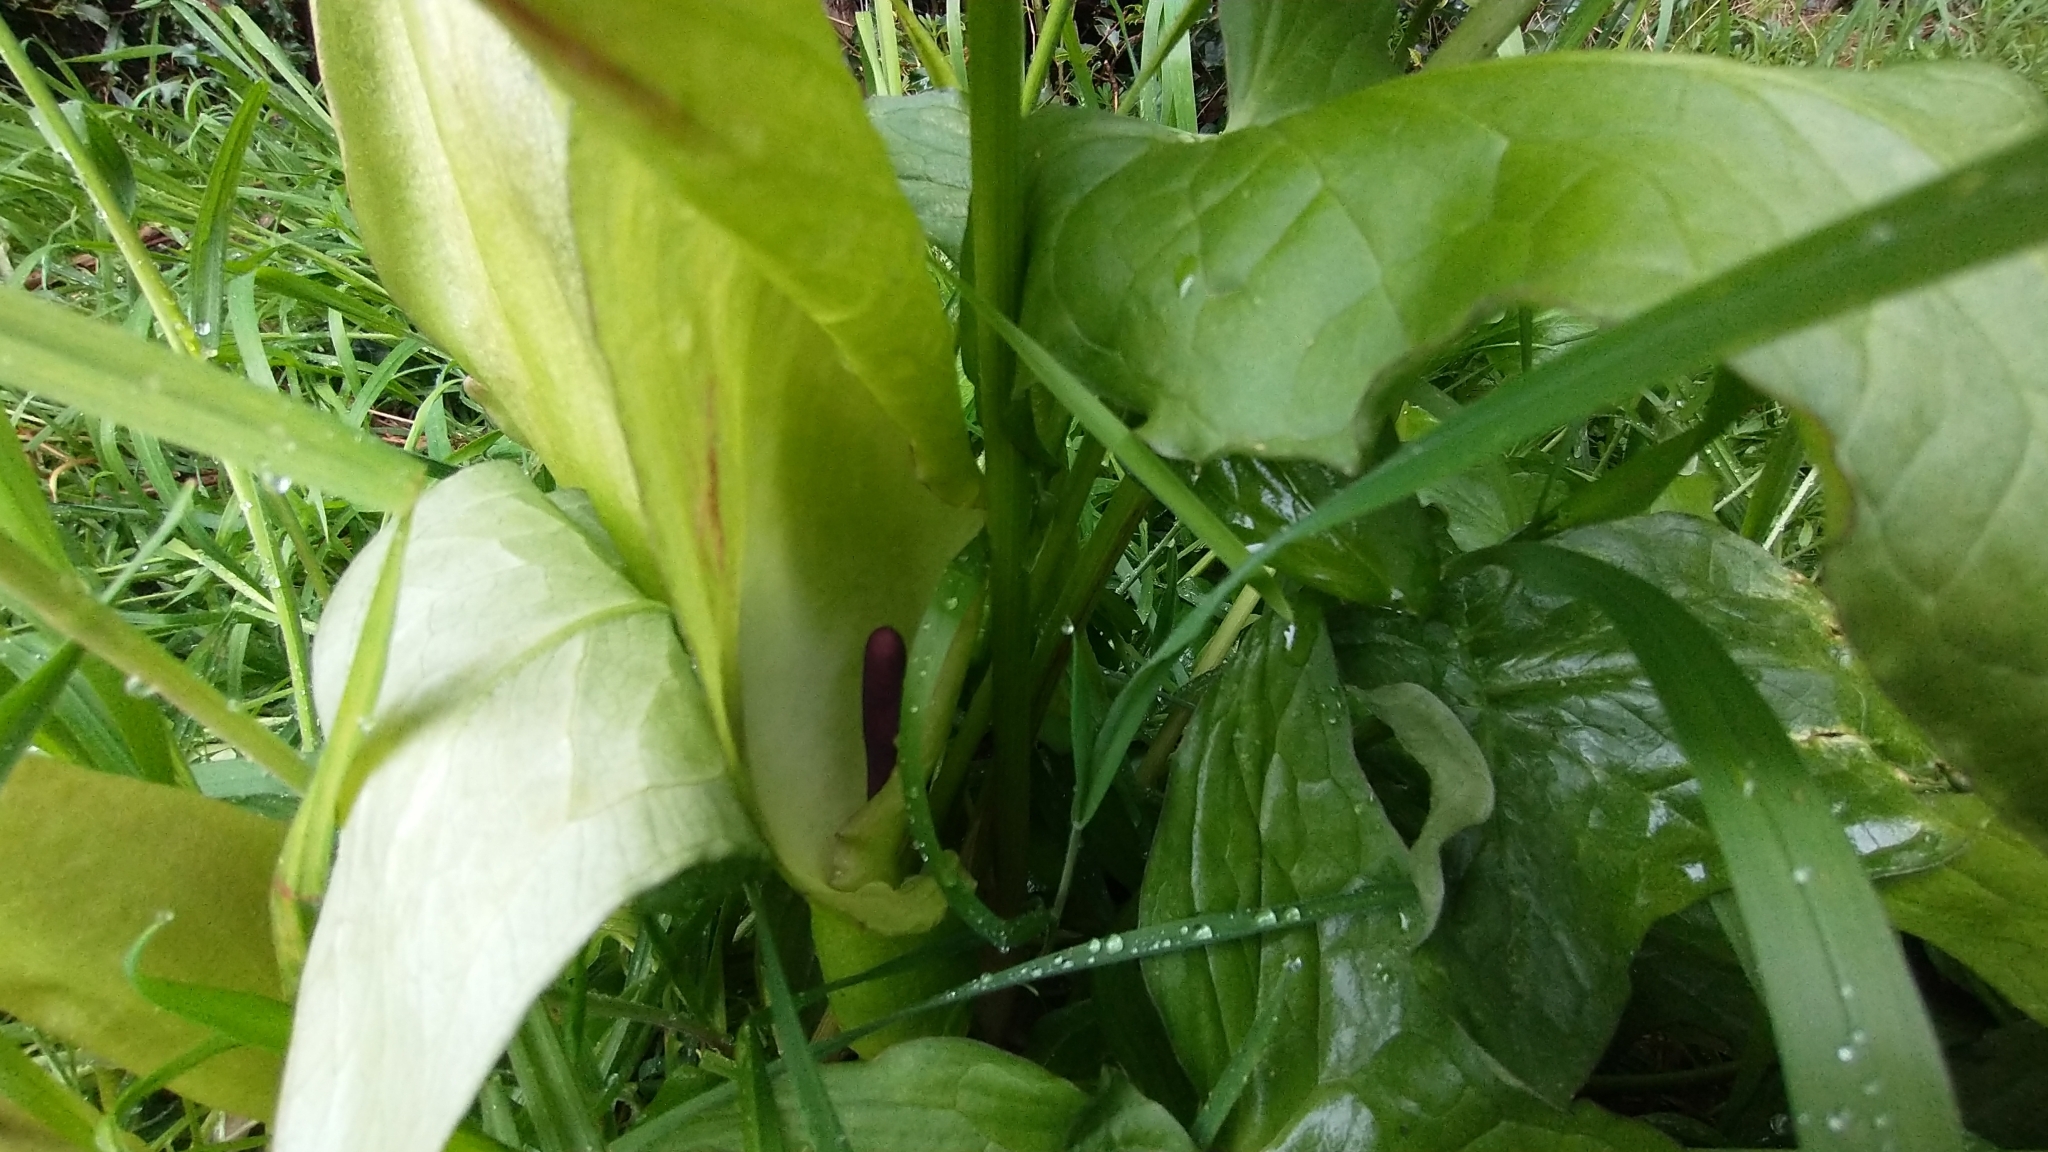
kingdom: Plantae
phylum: Tracheophyta
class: Liliopsida
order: Alismatales
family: Araceae
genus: Arum
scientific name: Arum maculatum
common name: Lords-and-ladies
